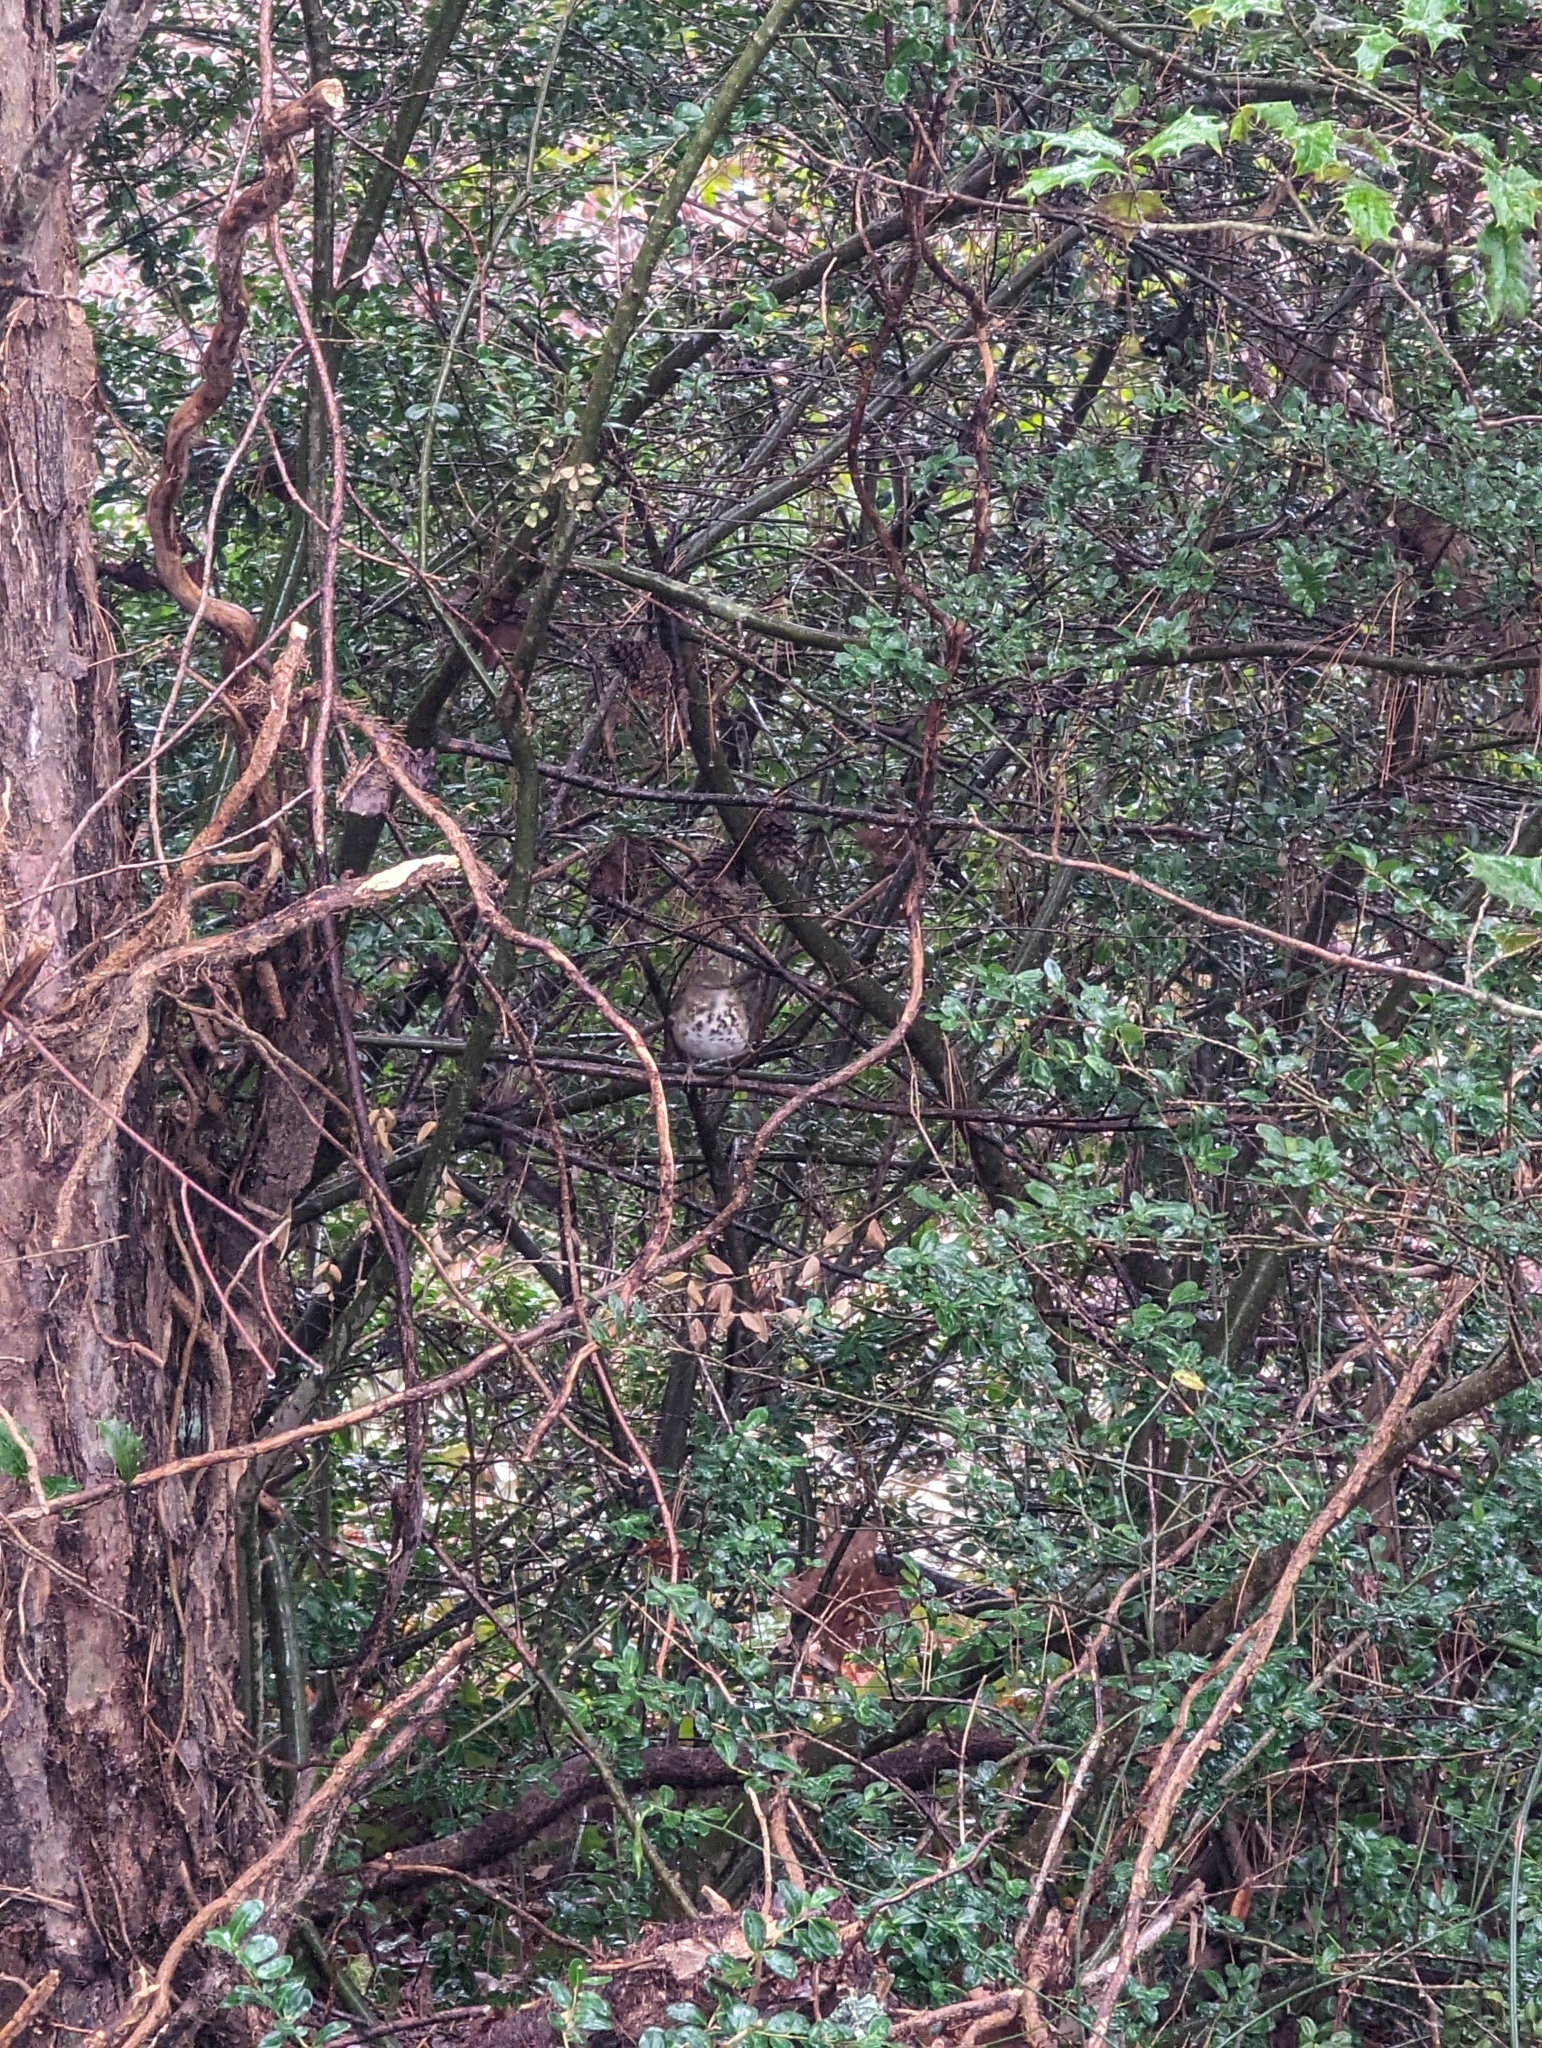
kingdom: Animalia
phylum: Chordata
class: Aves
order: Passeriformes
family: Turdidae
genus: Catharus
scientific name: Catharus guttatus
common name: Hermit thrush
